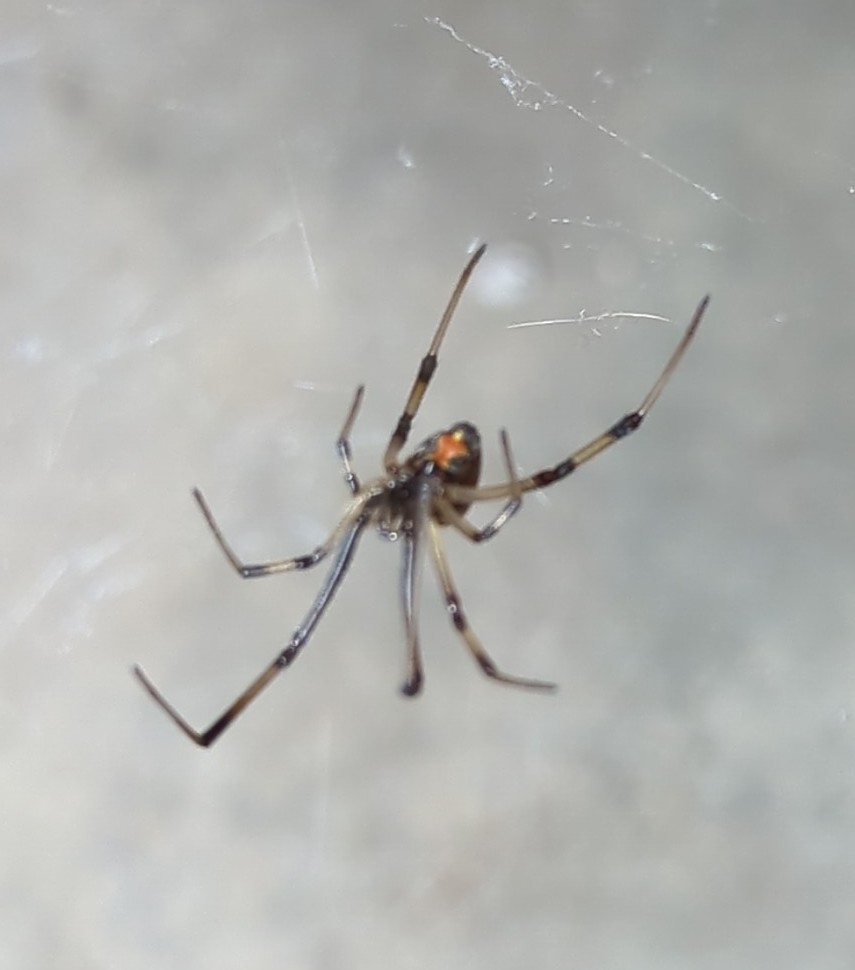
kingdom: Animalia
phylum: Arthropoda
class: Arachnida
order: Araneae
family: Theridiidae
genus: Latrodectus
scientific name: Latrodectus geometricus
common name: Brown widow spider
